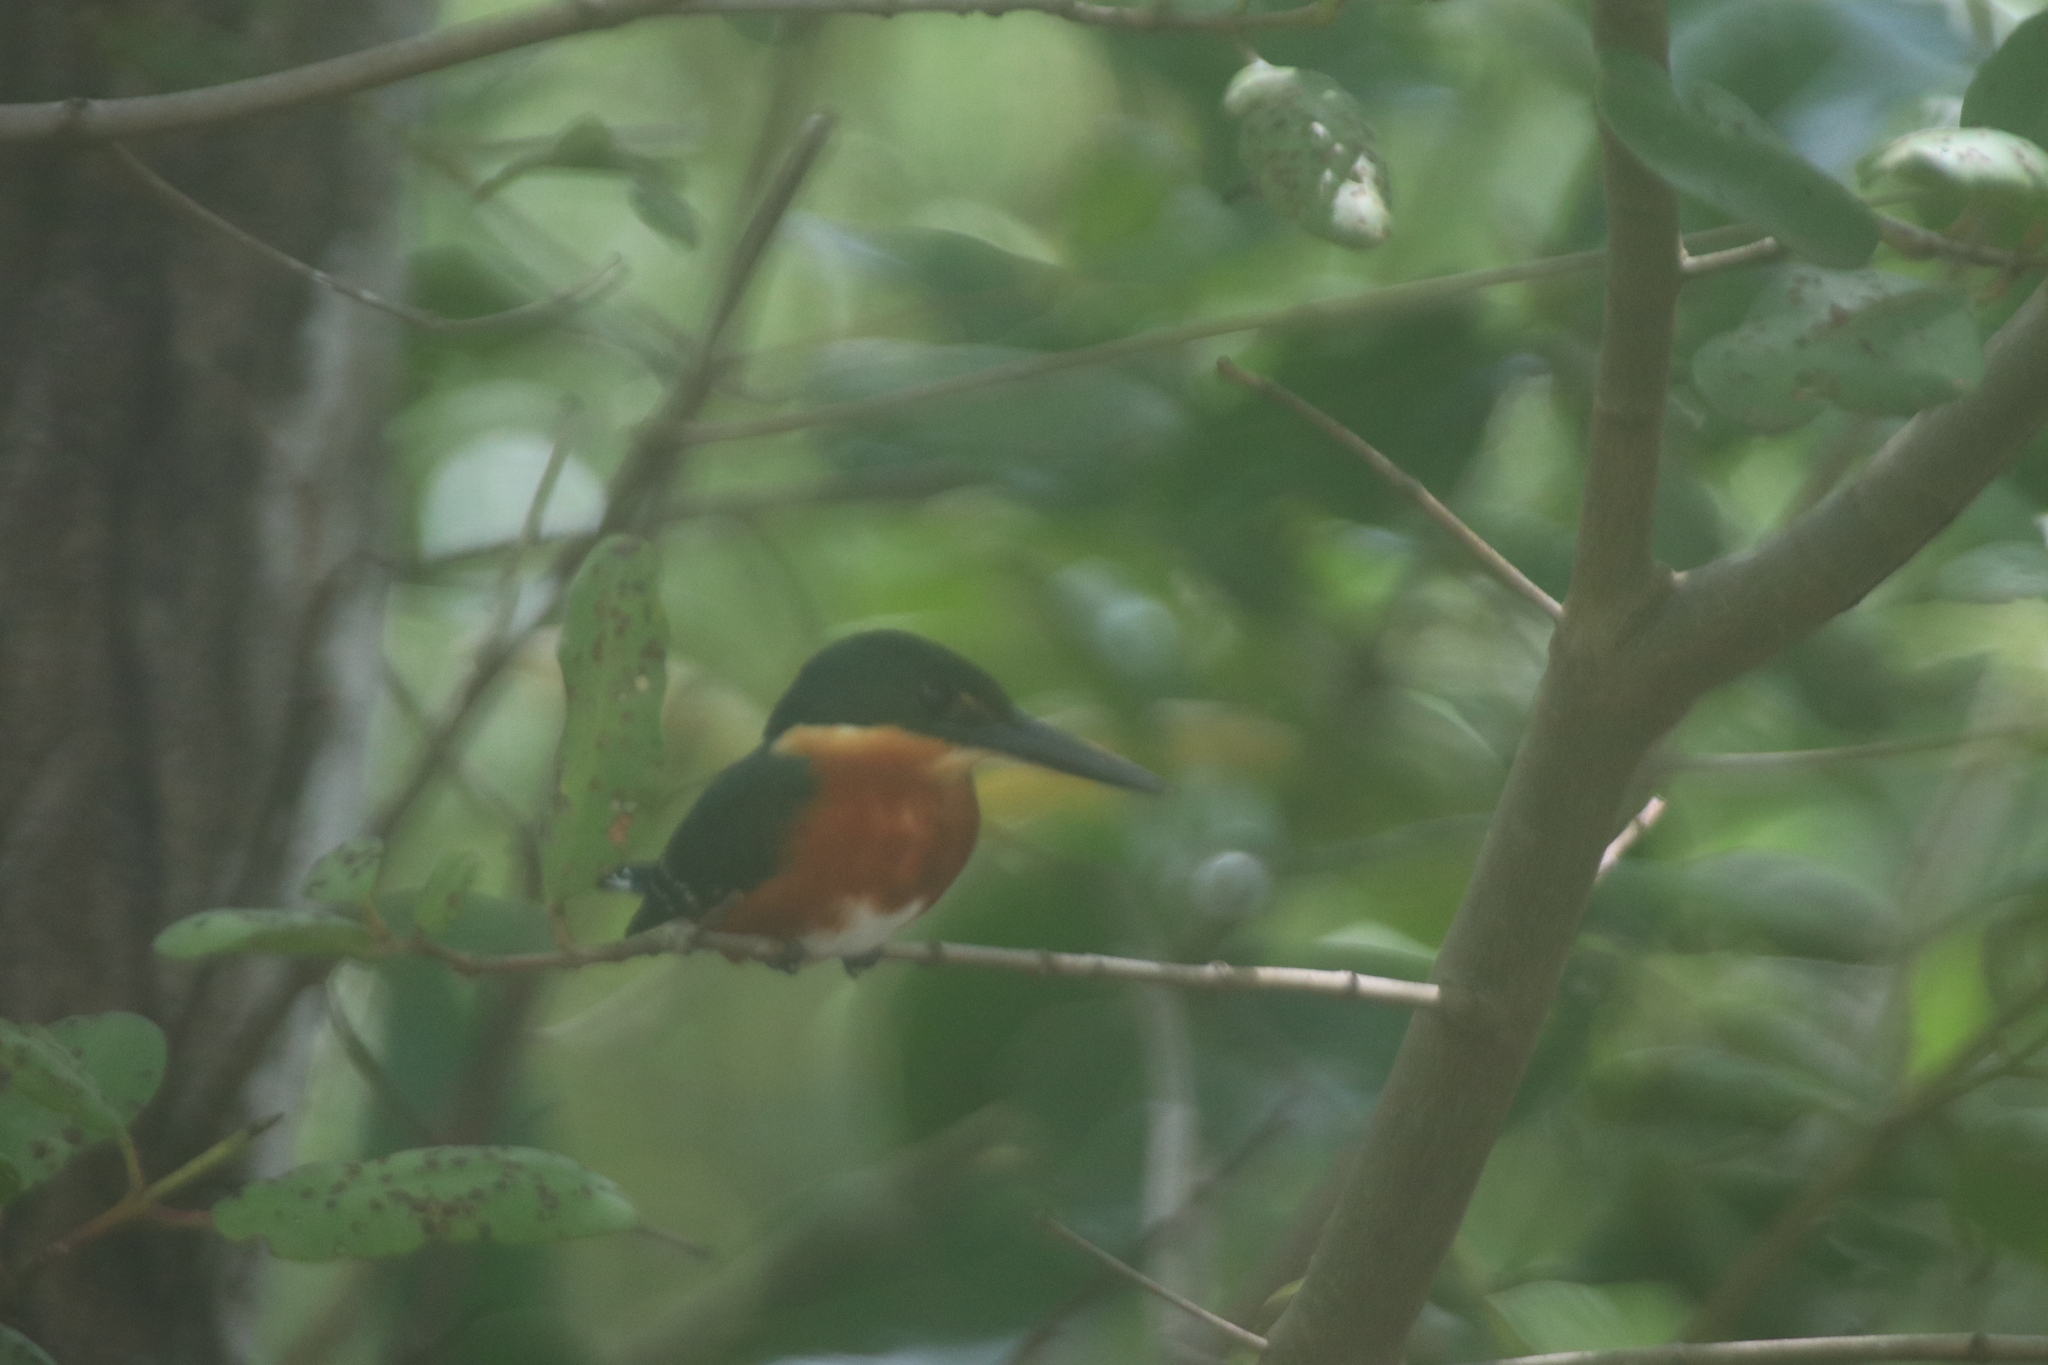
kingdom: Animalia
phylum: Chordata
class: Aves
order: Coraciiformes
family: Alcedinidae
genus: Chloroceryle
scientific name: Chloroceryle aenea
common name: American pygmy kingfisher
